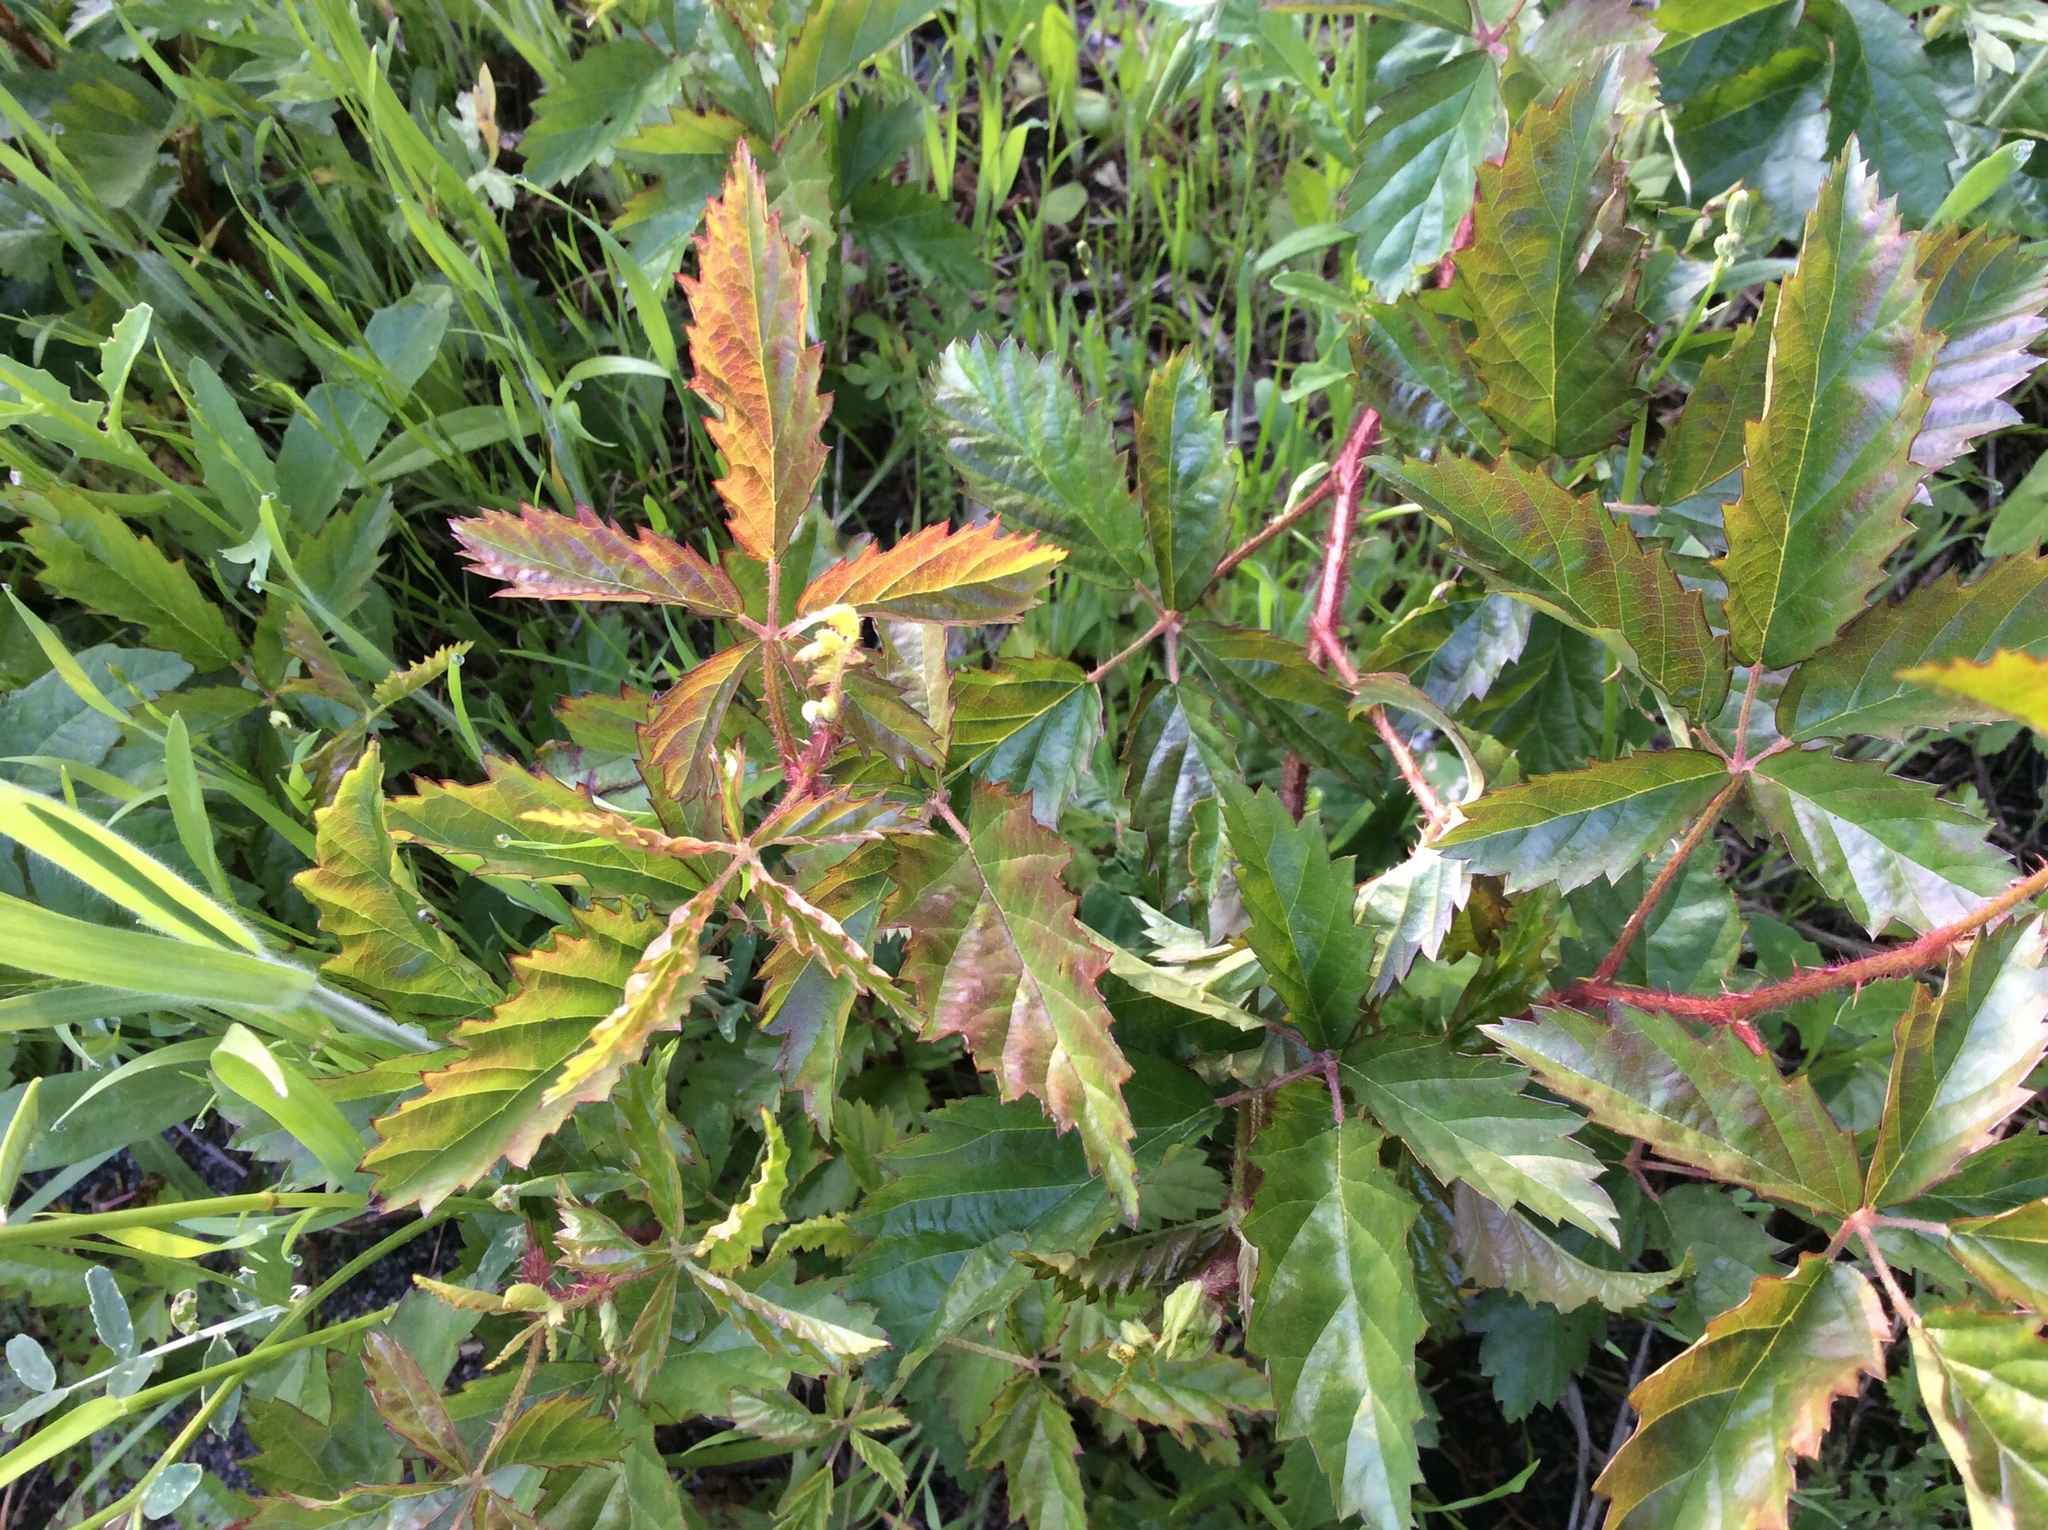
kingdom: Plantae
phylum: Tracheophyta
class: Magnoliopsida
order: Rosales
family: Rosaceae
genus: Rubus
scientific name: Rubus trivialis
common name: Southern dewberry
